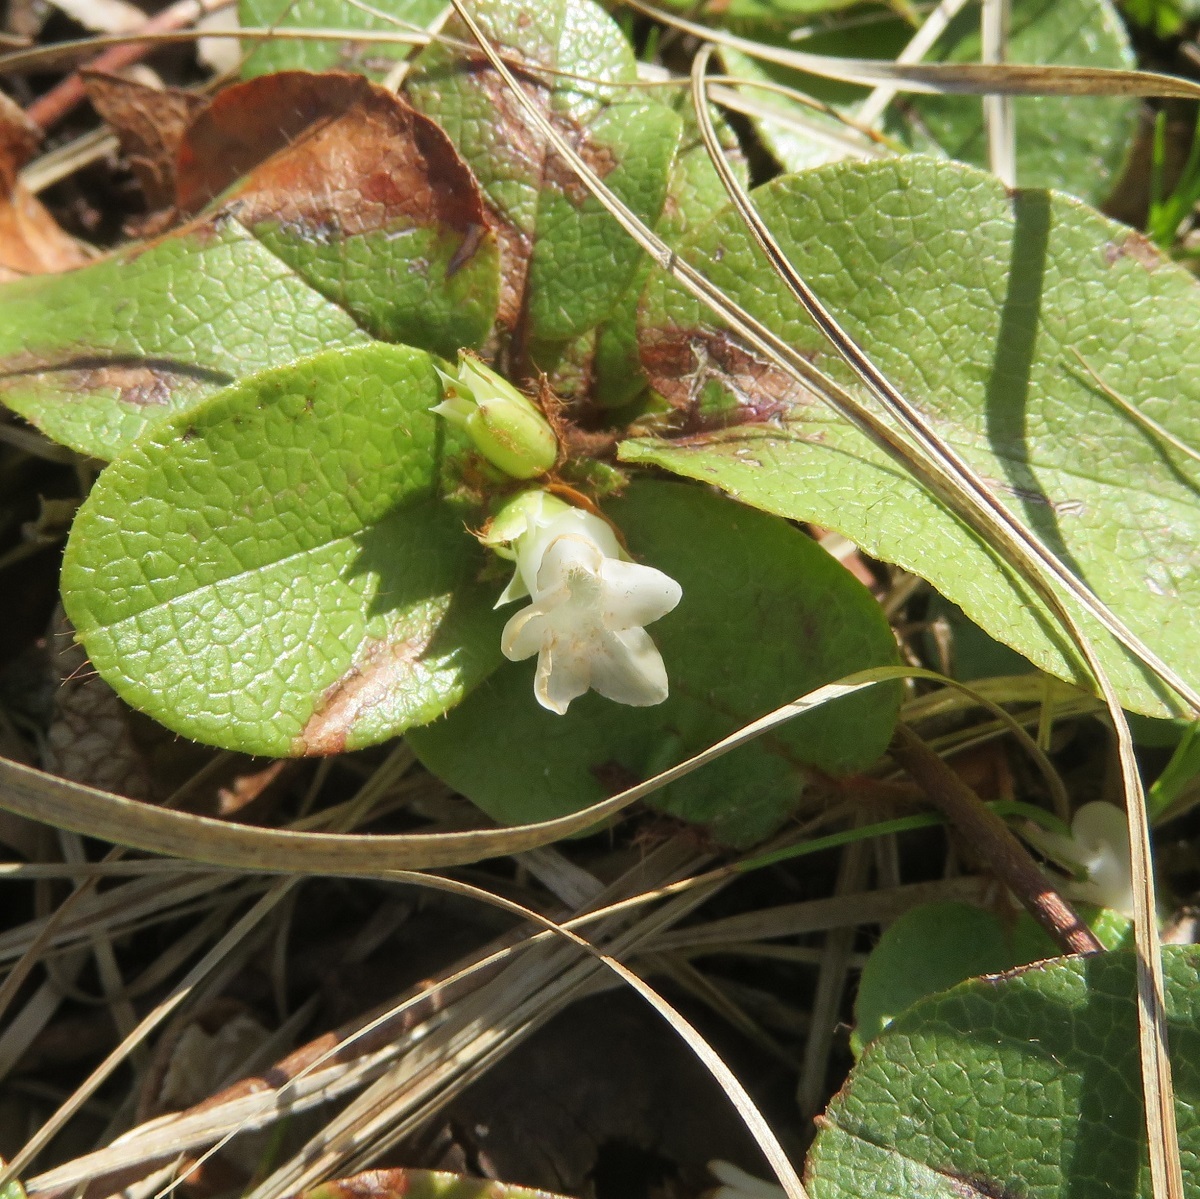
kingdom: Plantae
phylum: Tracheophyta
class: Magnoliopsida
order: Ericales
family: Ericaceae
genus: Epigaea
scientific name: Epigaea repens
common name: Gravelroot
